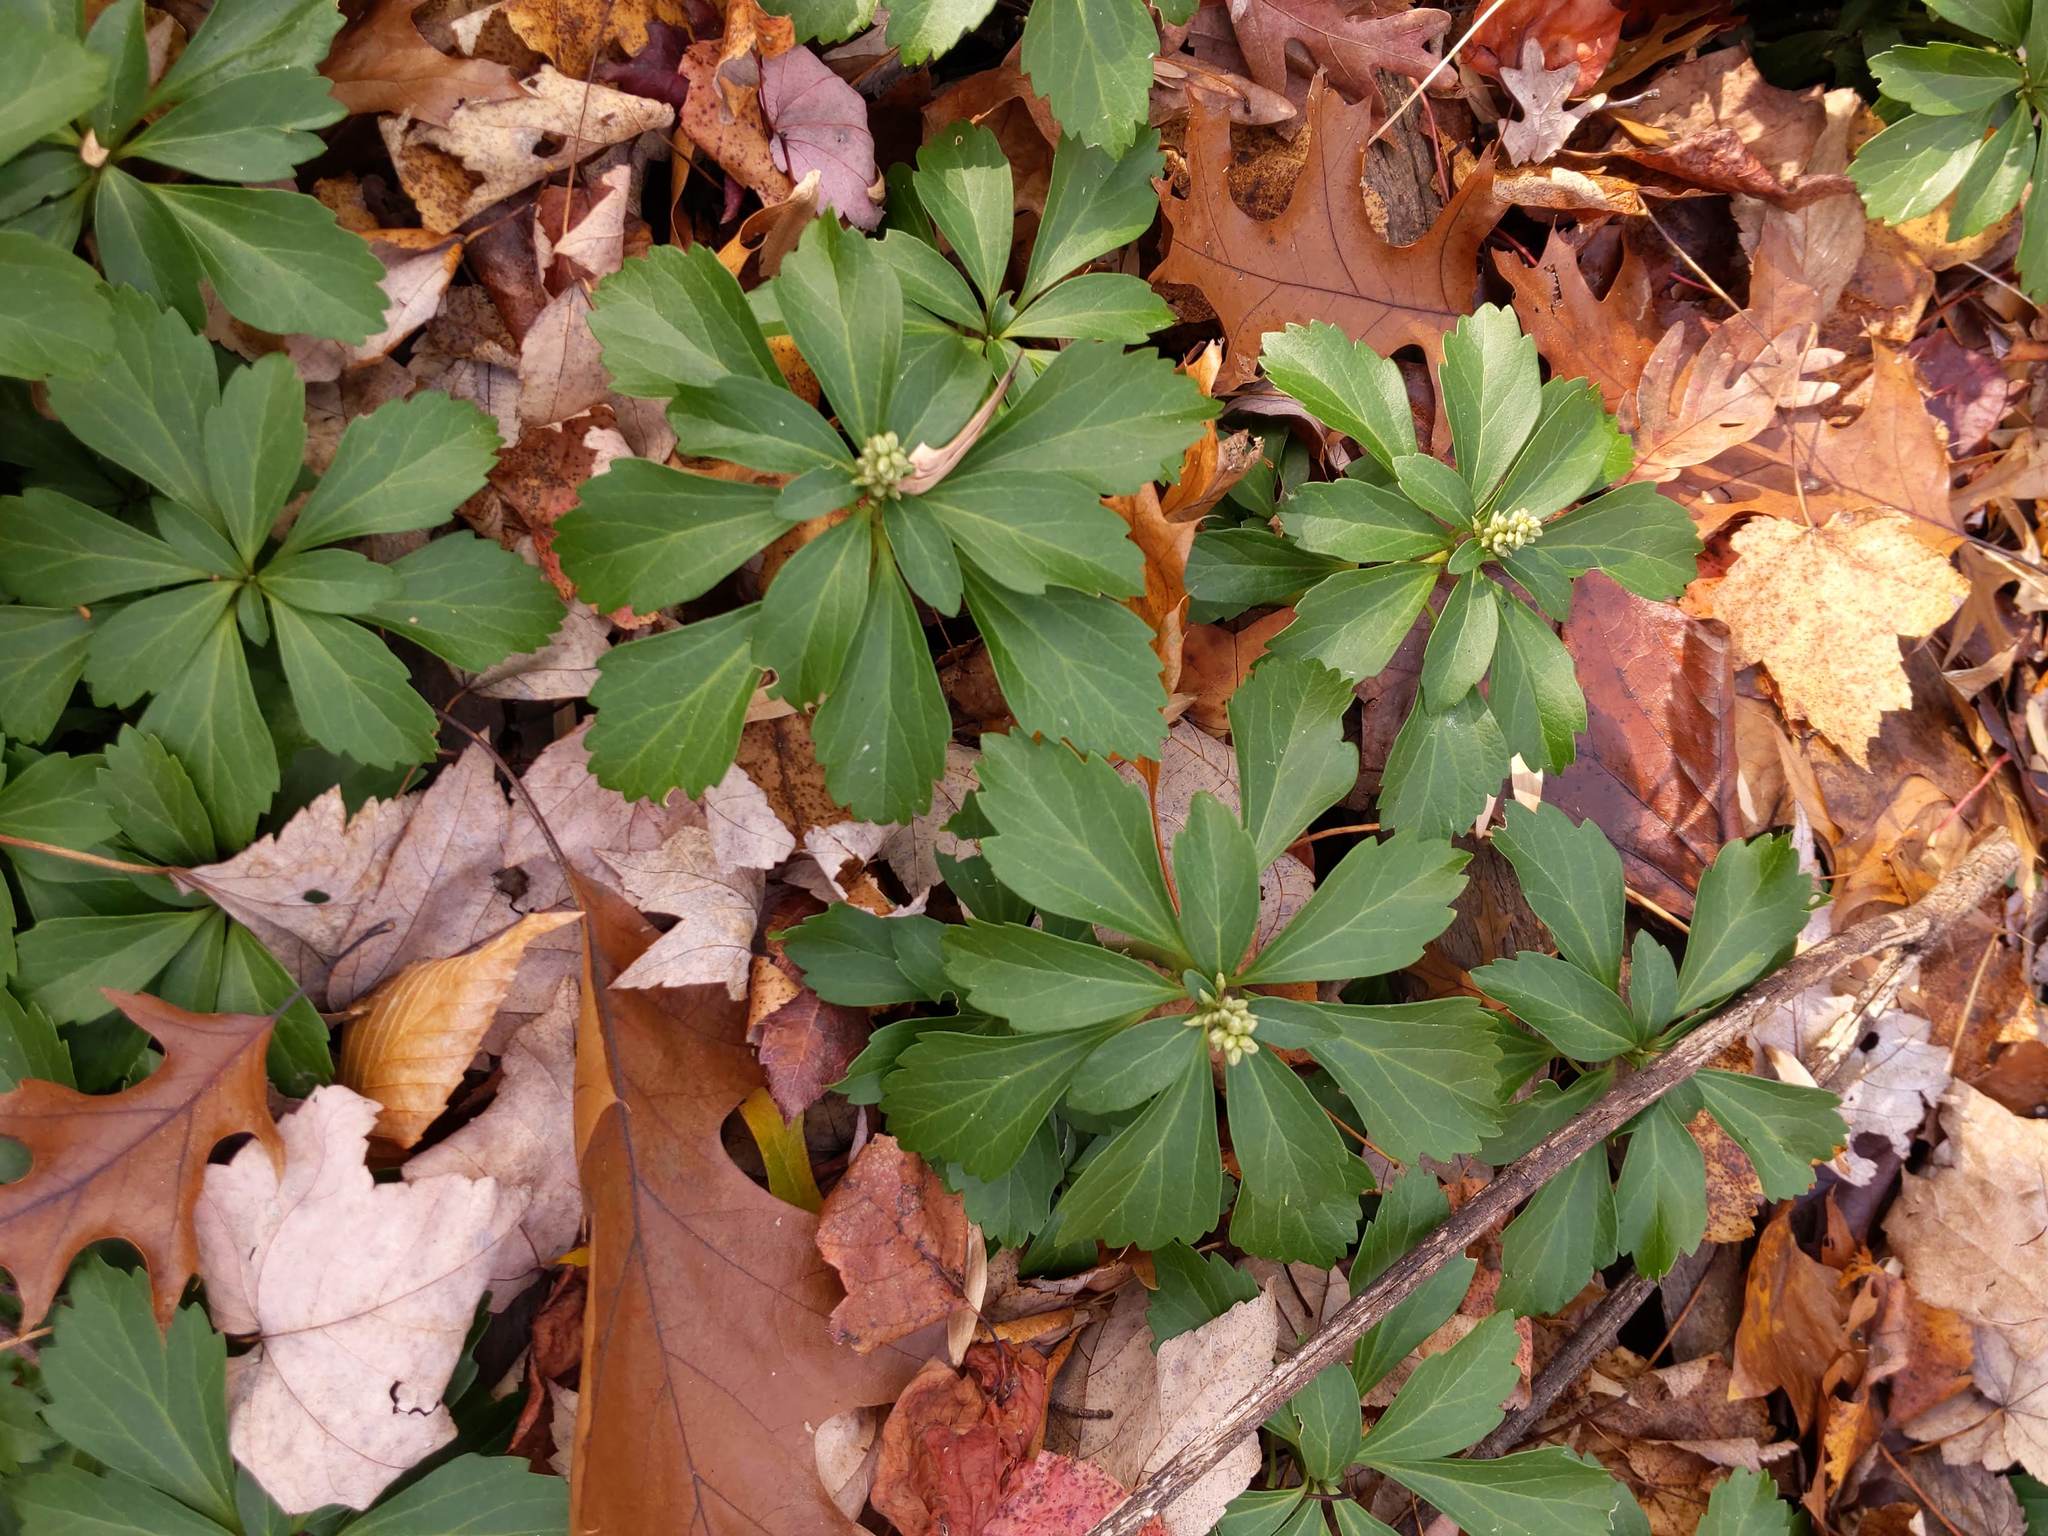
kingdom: Plantae
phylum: Tracheophyta
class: Magnoliopsida
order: Buxales
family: Buxaceae
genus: Pachysandra
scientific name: Pachysandra terminalis
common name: Japanese pachysandra
